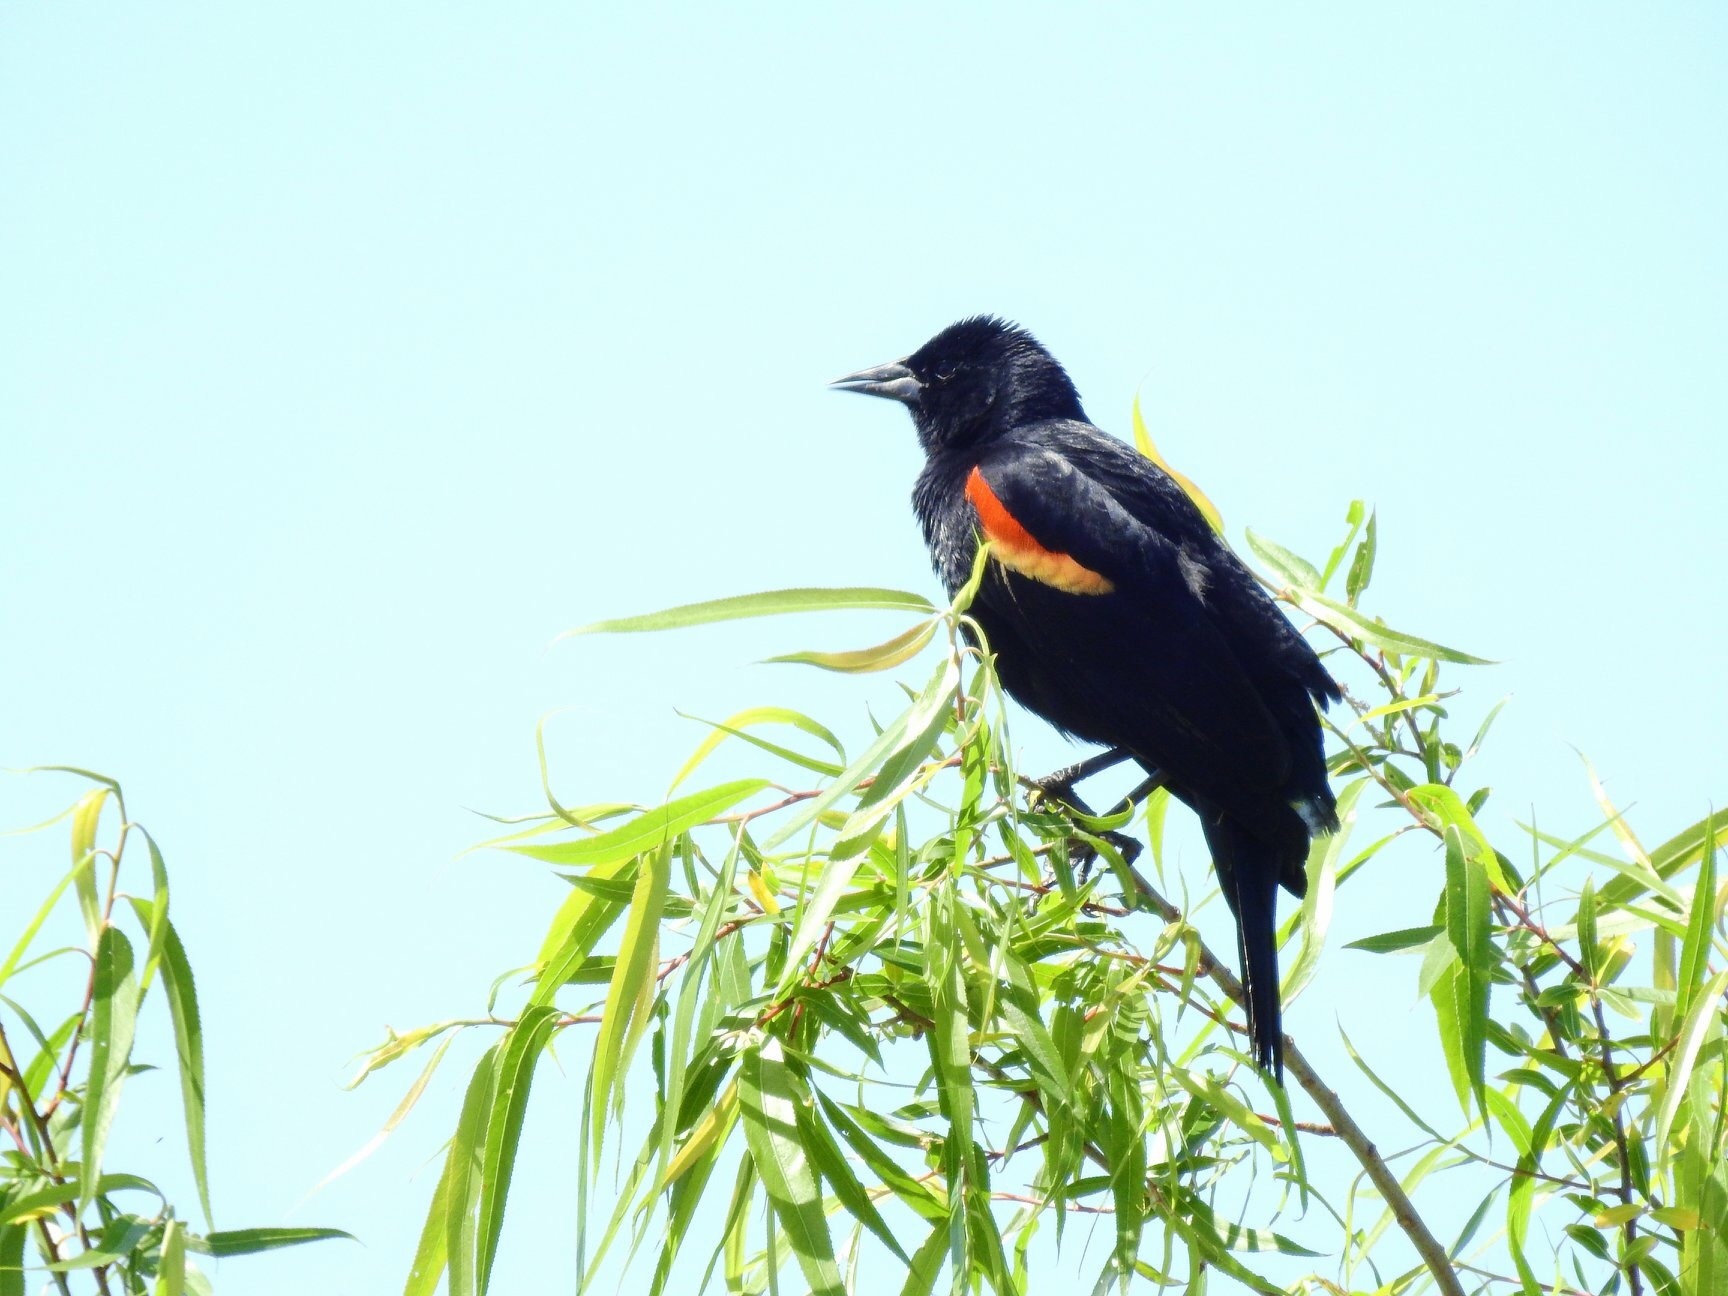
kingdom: Animalia
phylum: Chordata
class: Aves
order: Passeriformes
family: Icteridae
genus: Agelaius
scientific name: Agelaius phoeniceus
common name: Red-winged blackbird
